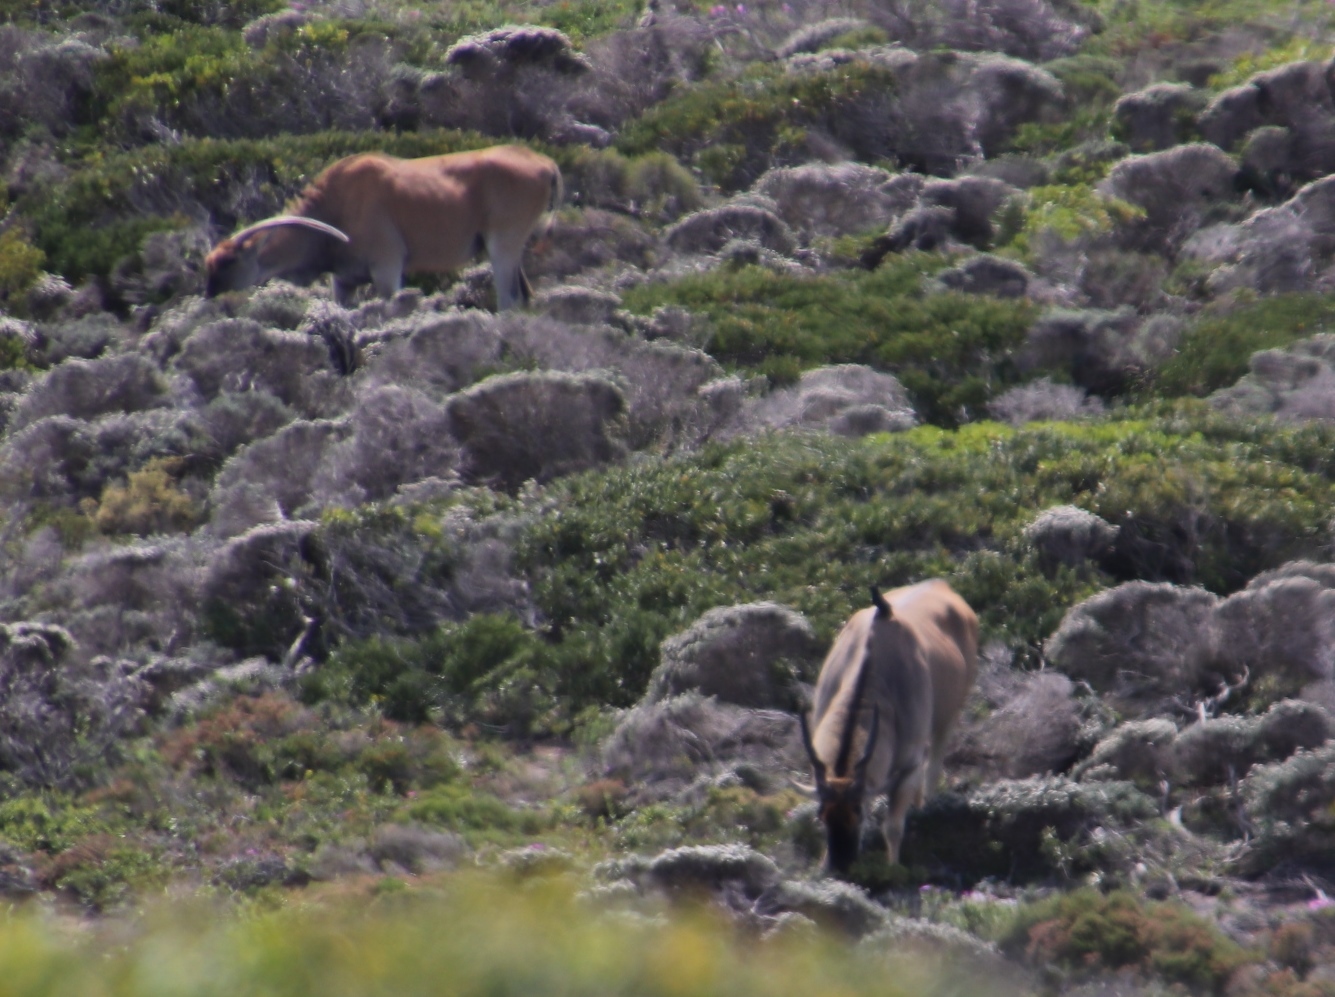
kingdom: Animalia
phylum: Chordata
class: Mammalia
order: Artiodactyla
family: Bovidae
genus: Taurotragus
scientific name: Taurotragus oryx
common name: Common eland
